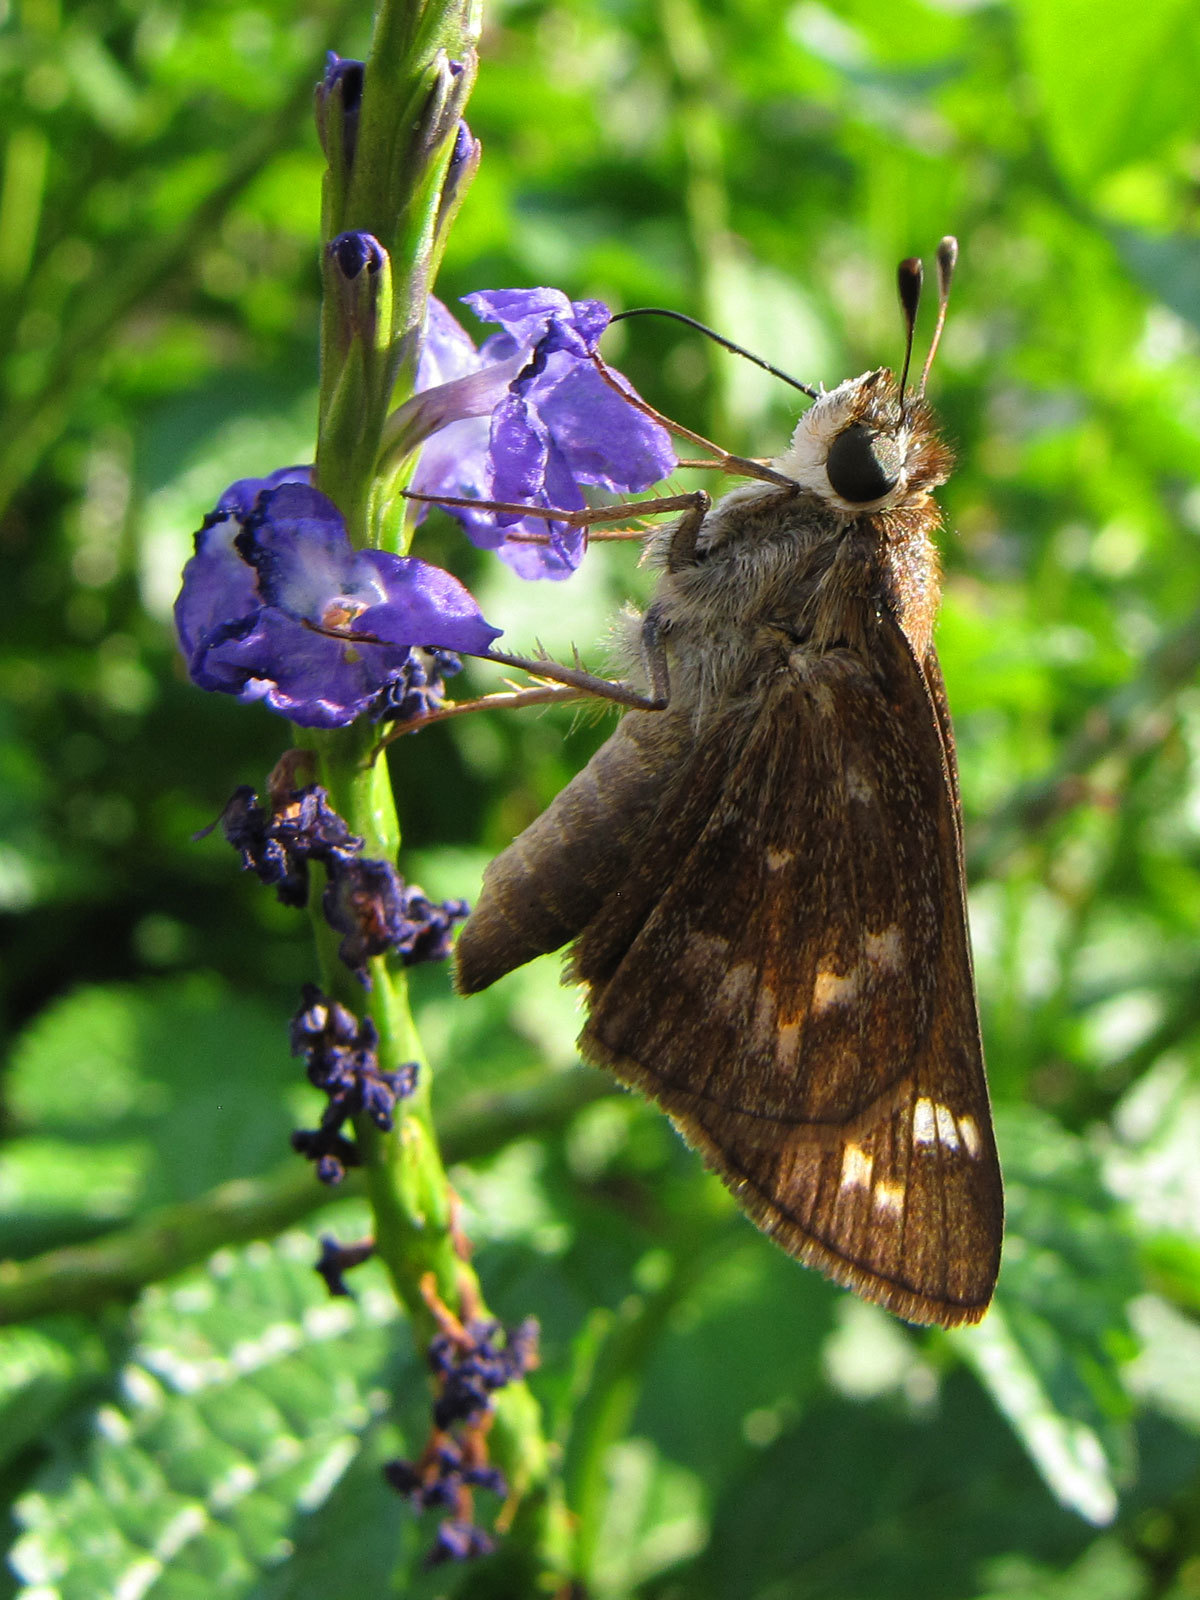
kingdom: Animalia
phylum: Arthropoda
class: Insecta
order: Lepidoptera
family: Hesperiidae
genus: Atalopedes
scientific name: Atalopedes
